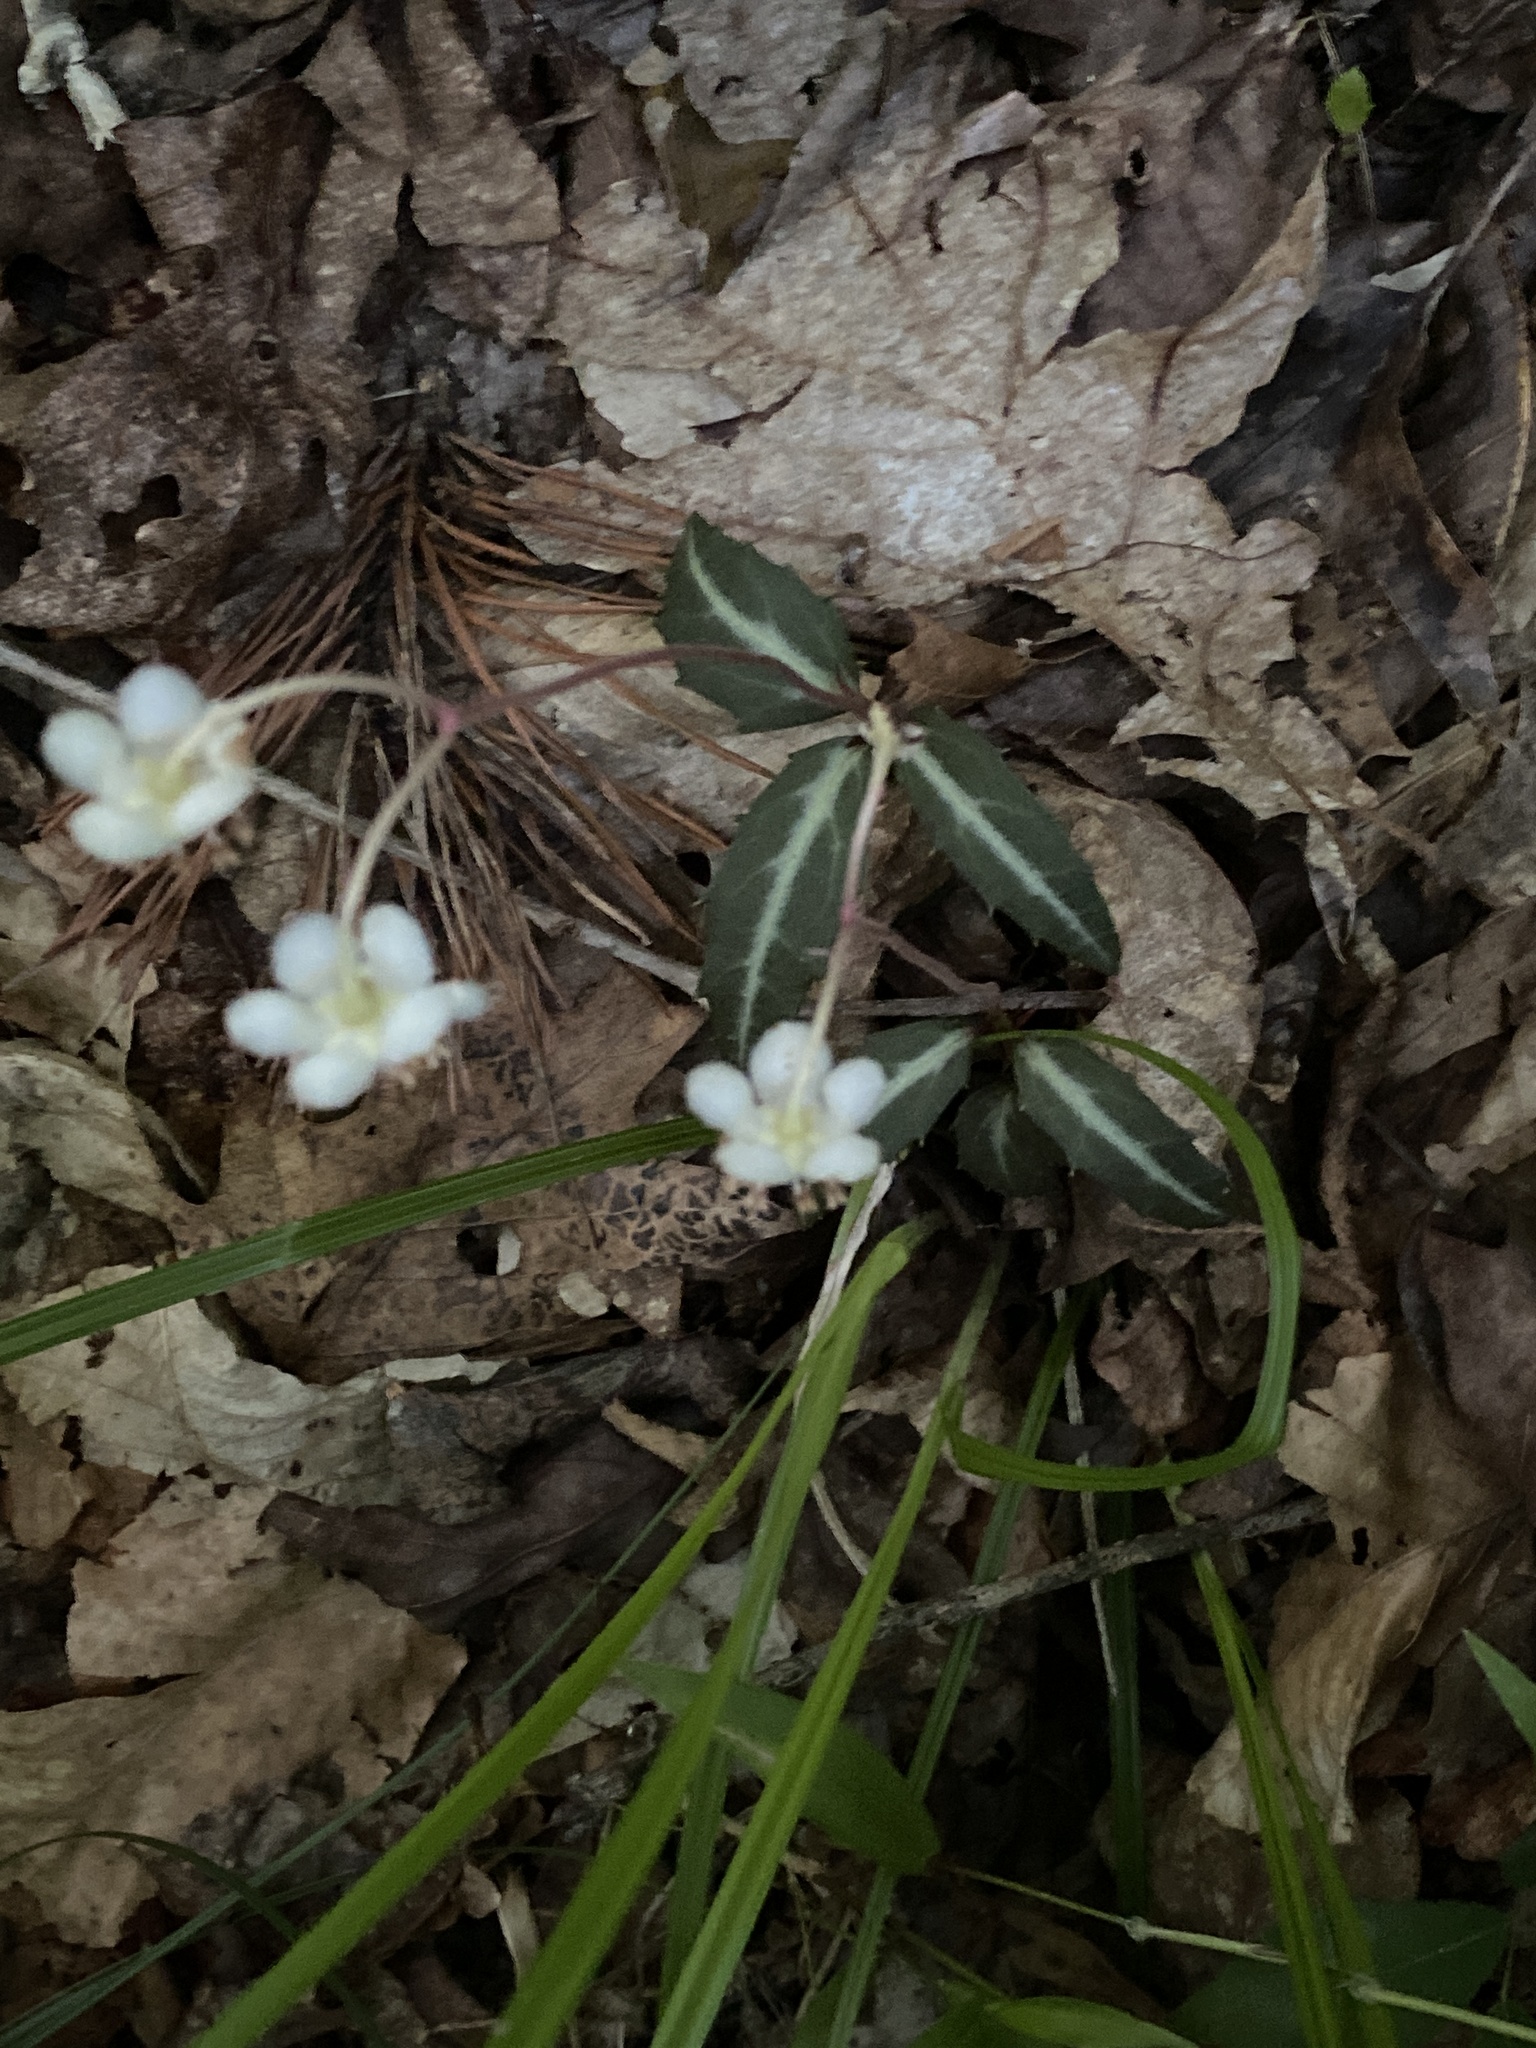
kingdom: Plantae
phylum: Tracheophyta
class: Magnoliopsida
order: Ericales
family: Ericaceae
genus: Chimaphila
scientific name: Chimaphila maculata
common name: Spotted pipsissewa
